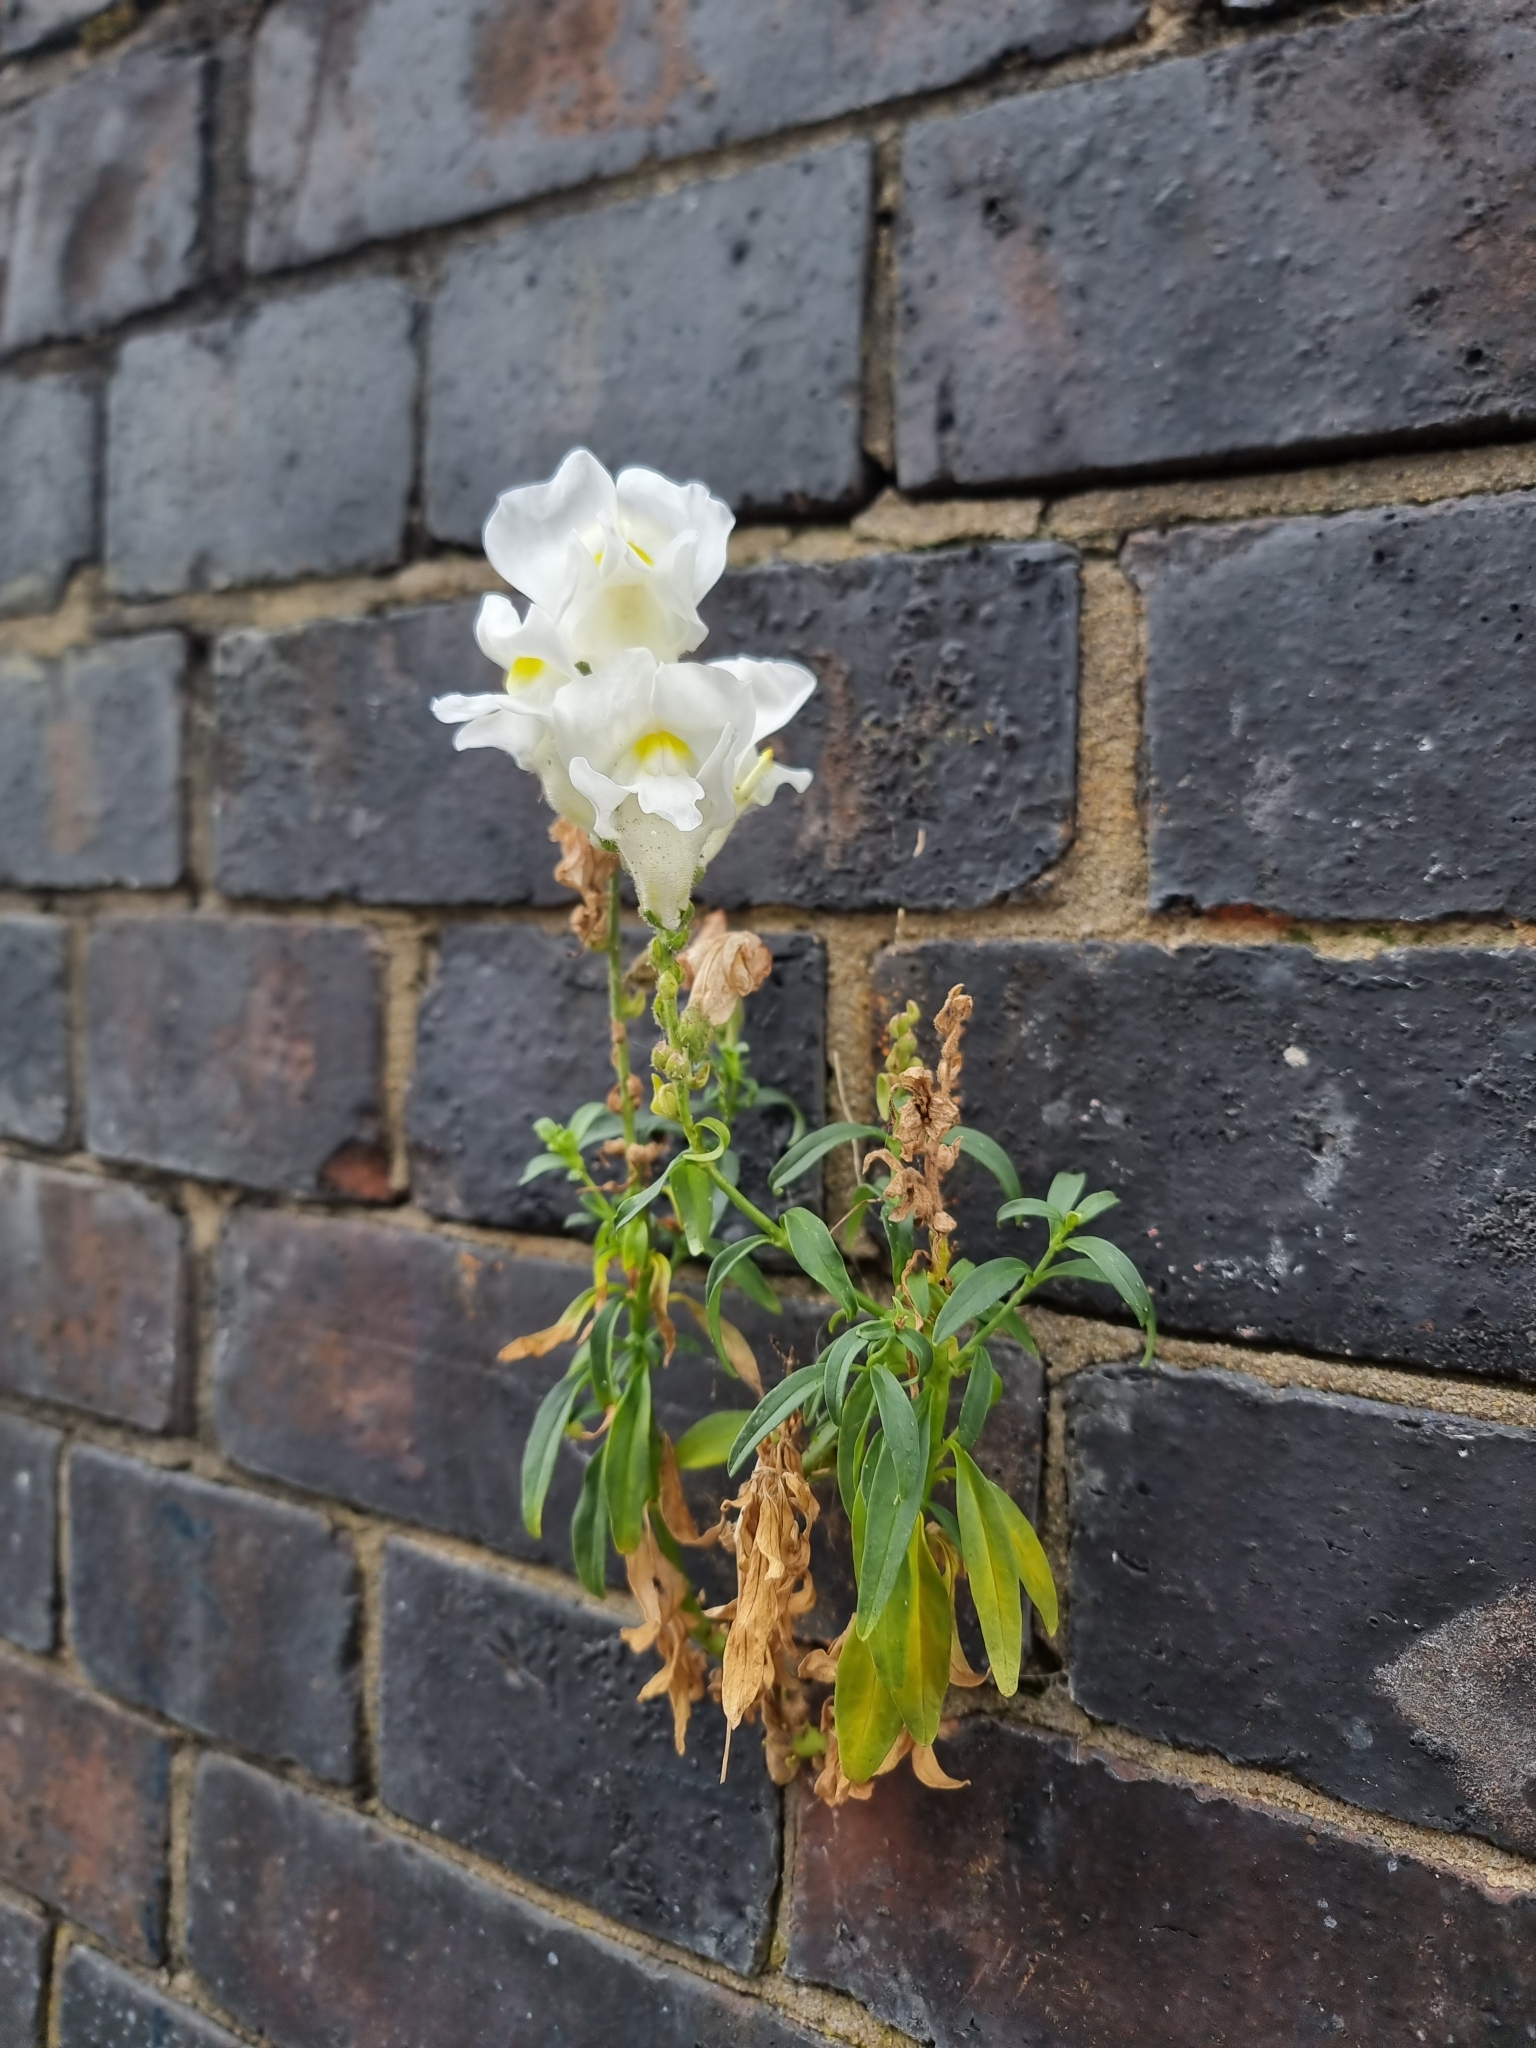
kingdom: Plantae
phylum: Tracheophyta
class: Magnoliopsida
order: Lamiales
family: Plantaginaceae
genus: Antirrhinum
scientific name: Antirrhinum majus
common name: Snapdragon
